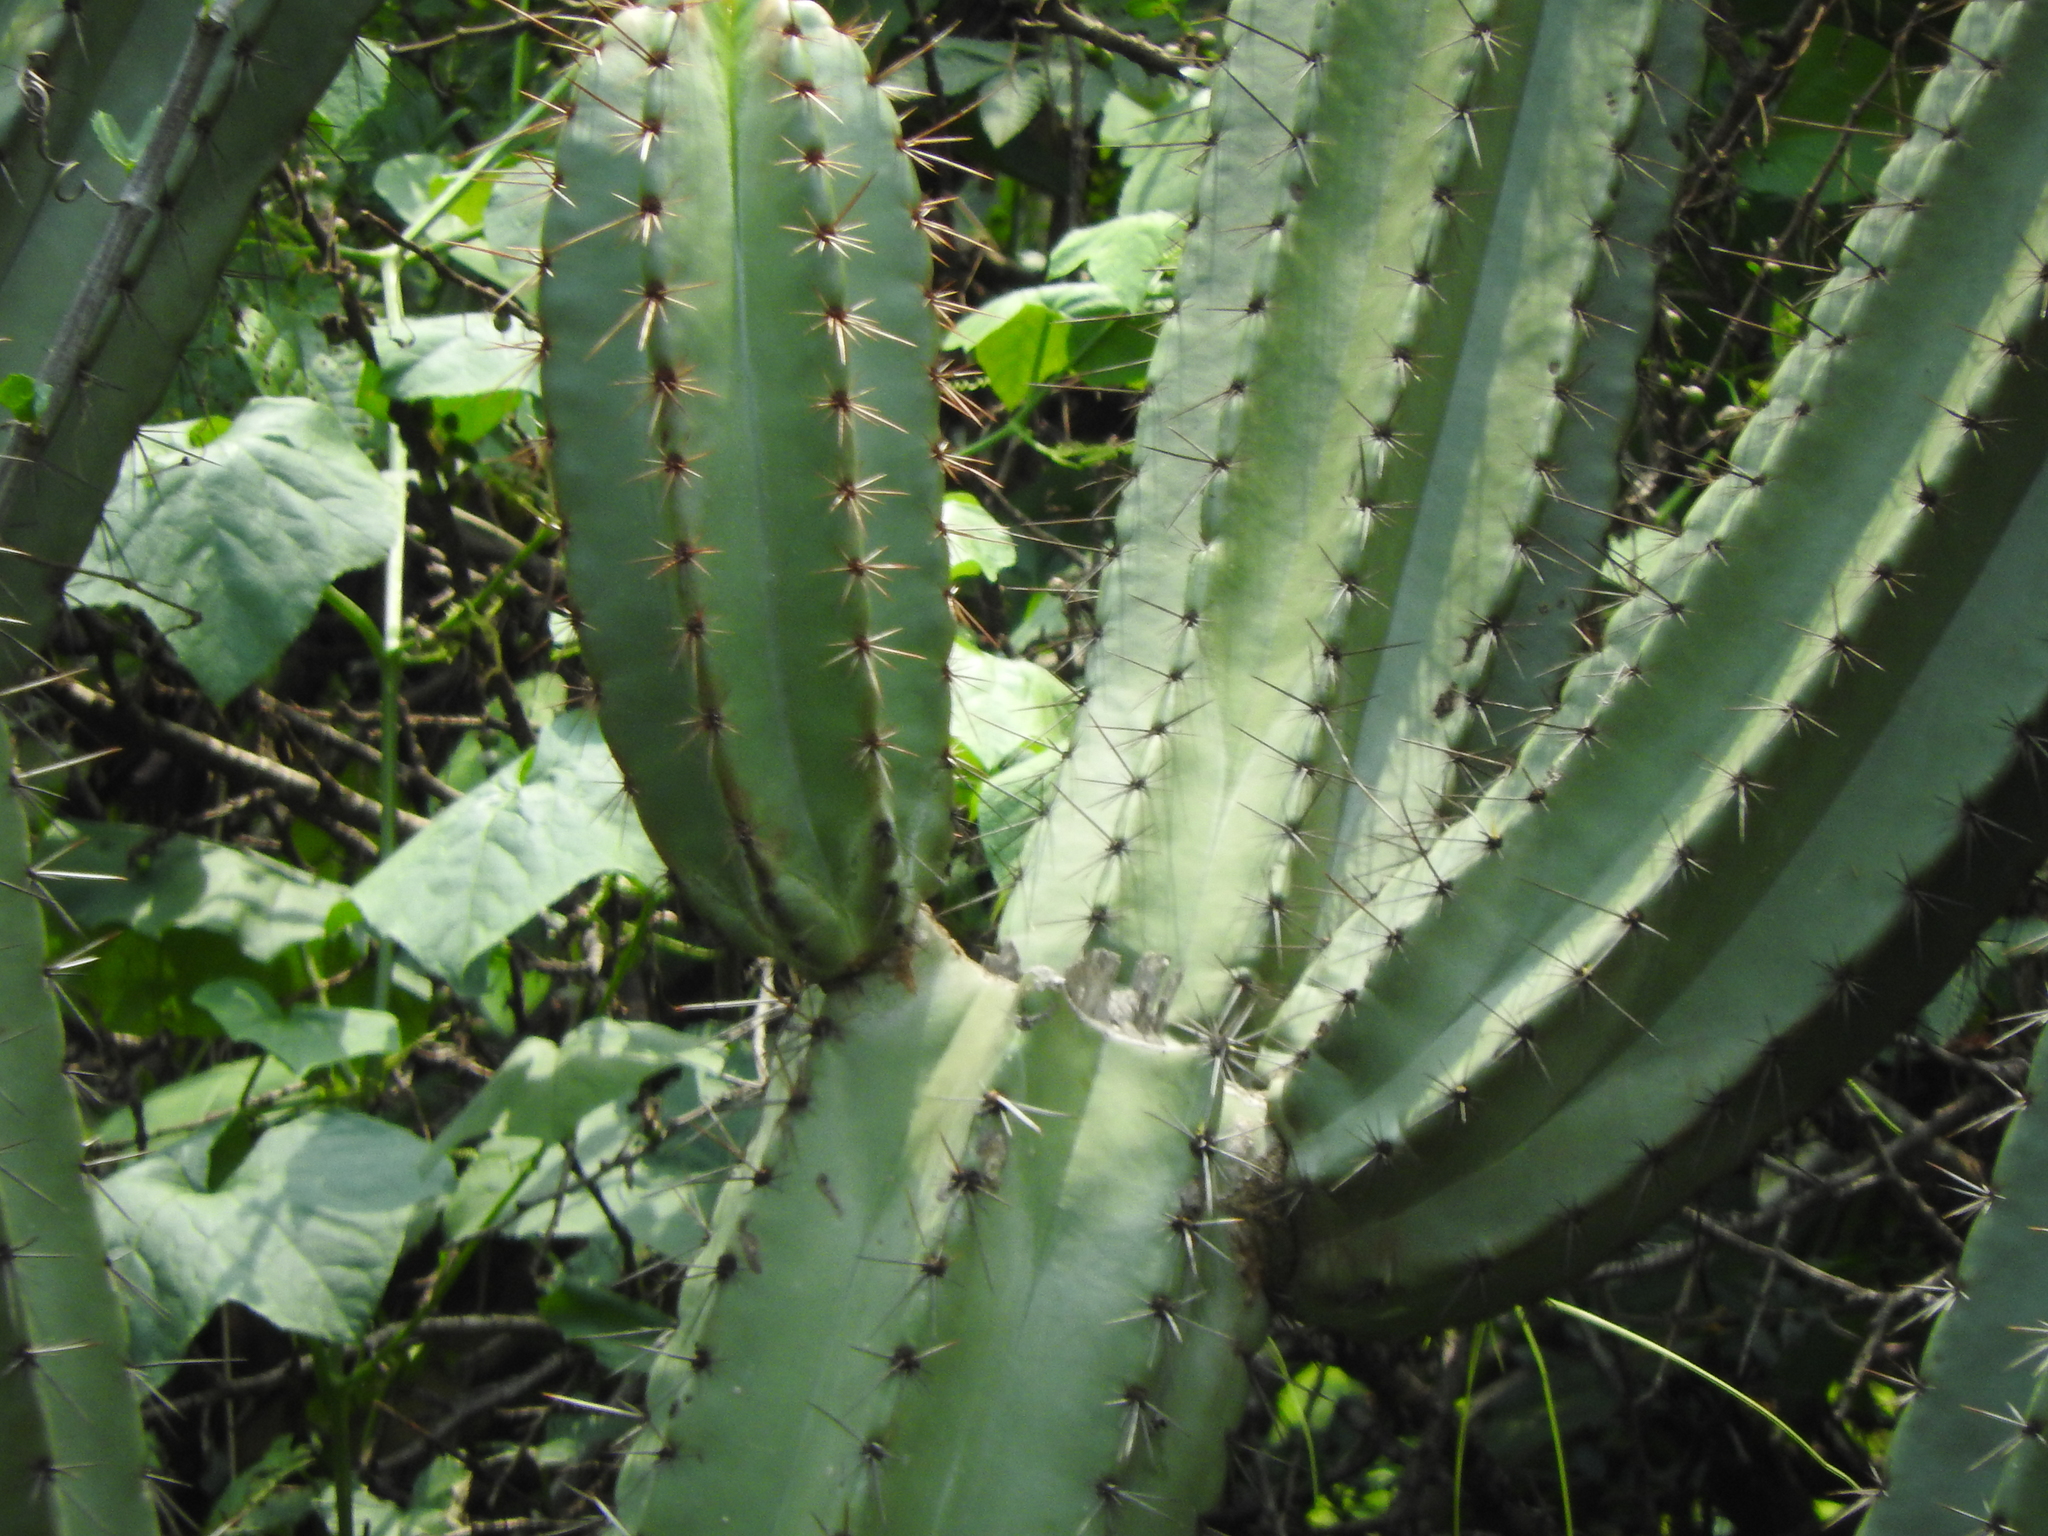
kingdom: Plantae
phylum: Tracheophyta
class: Magnoliopsida
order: Caryophyllales
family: Cactaceae
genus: Stenocereus
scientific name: Stenocereus queretaroensis
